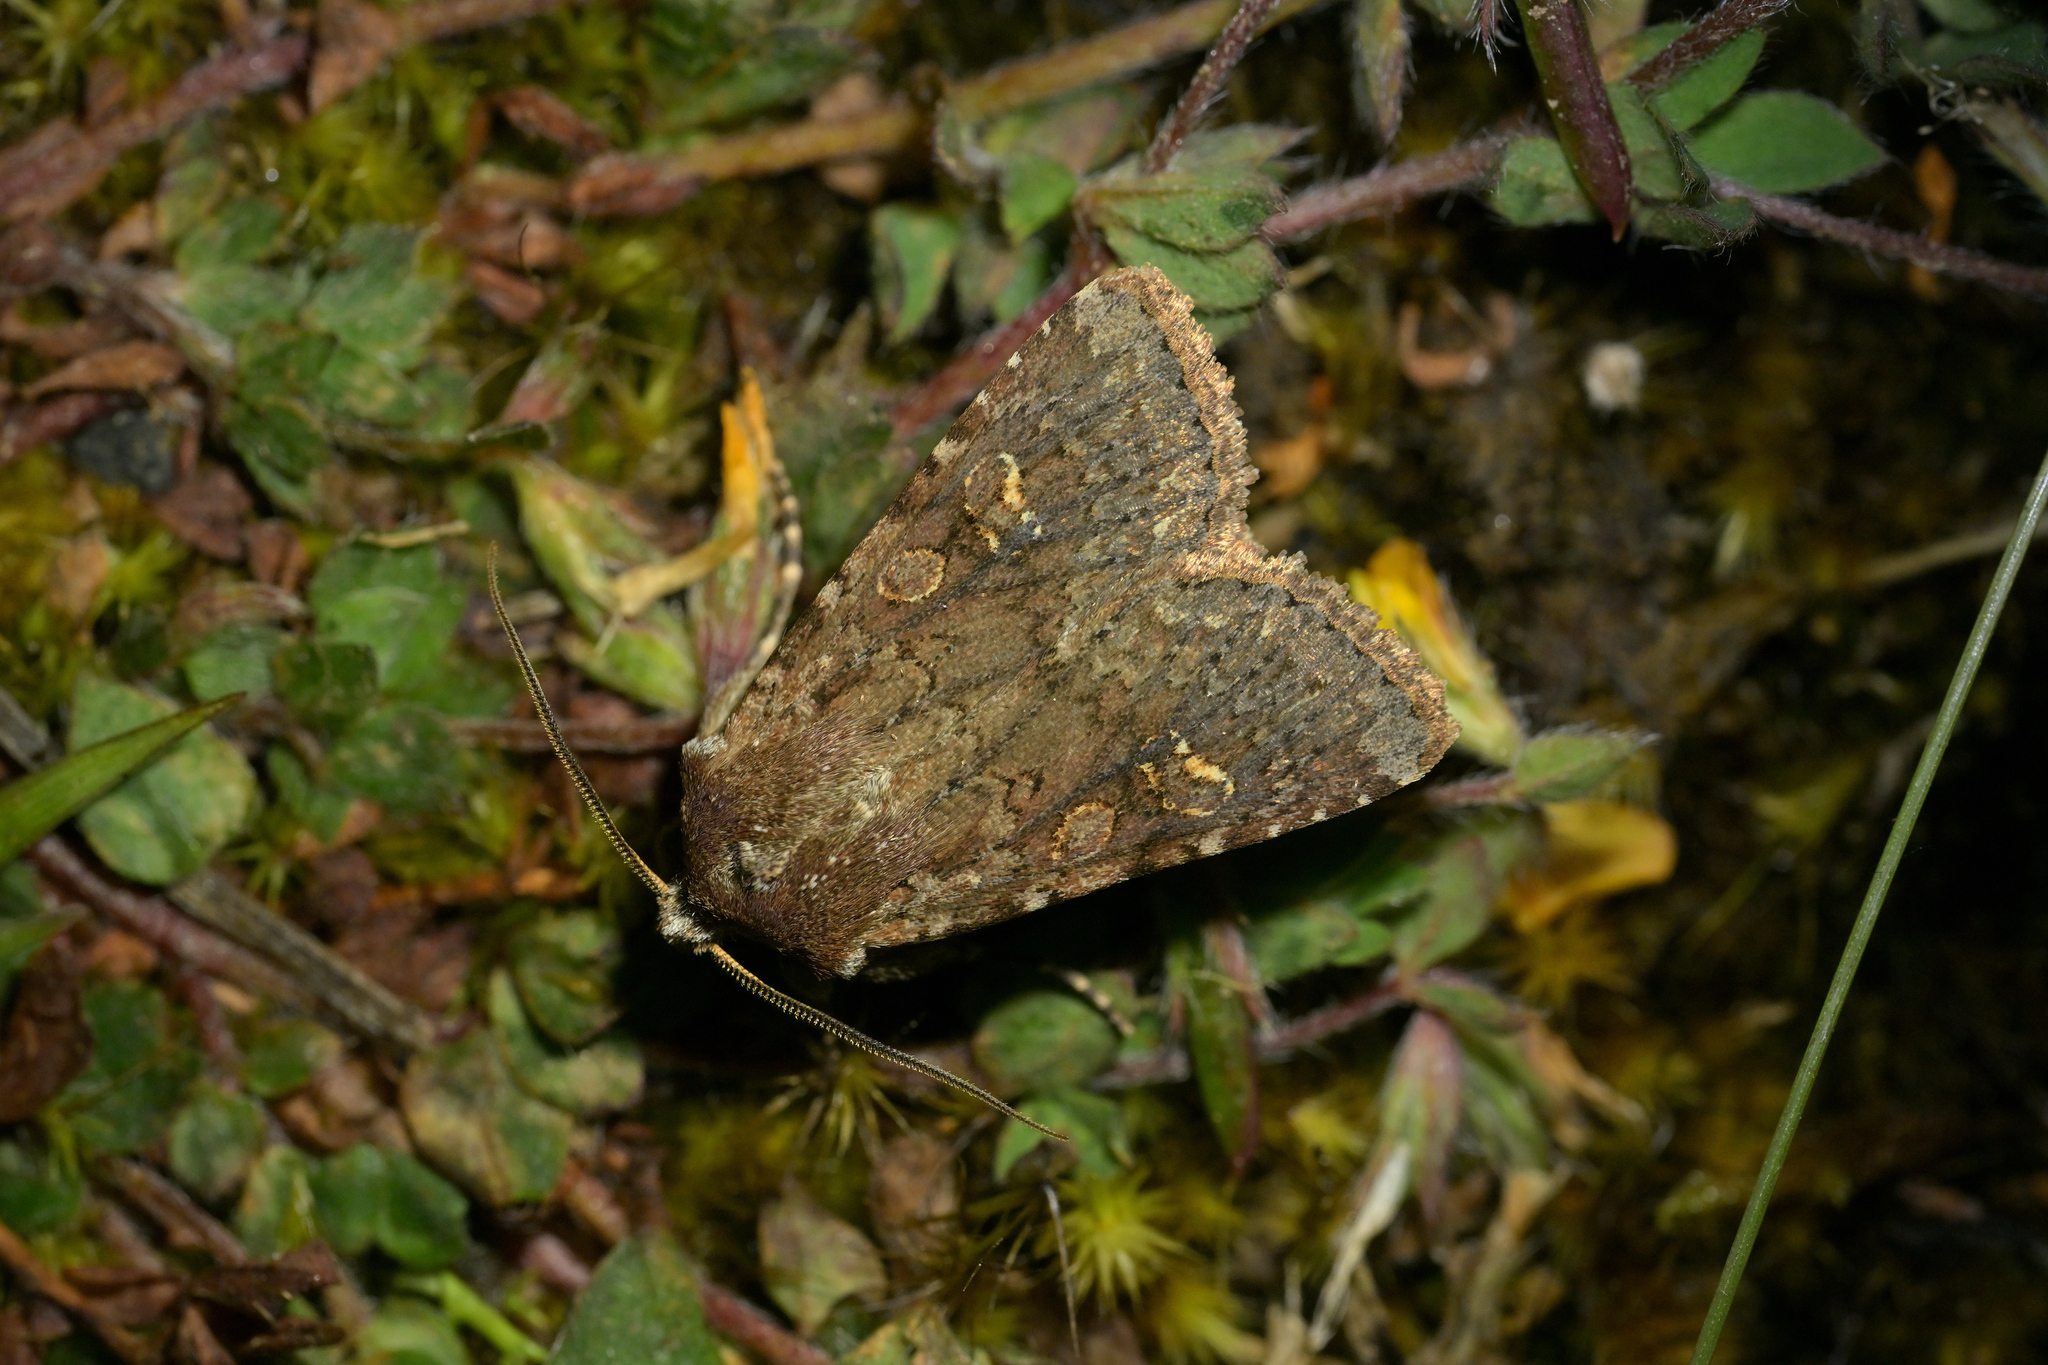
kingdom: Animalia
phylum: Arthropoda
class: Insecta
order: Lepidoptera
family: Noctuidae
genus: Ichneutica
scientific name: Ichneutica
